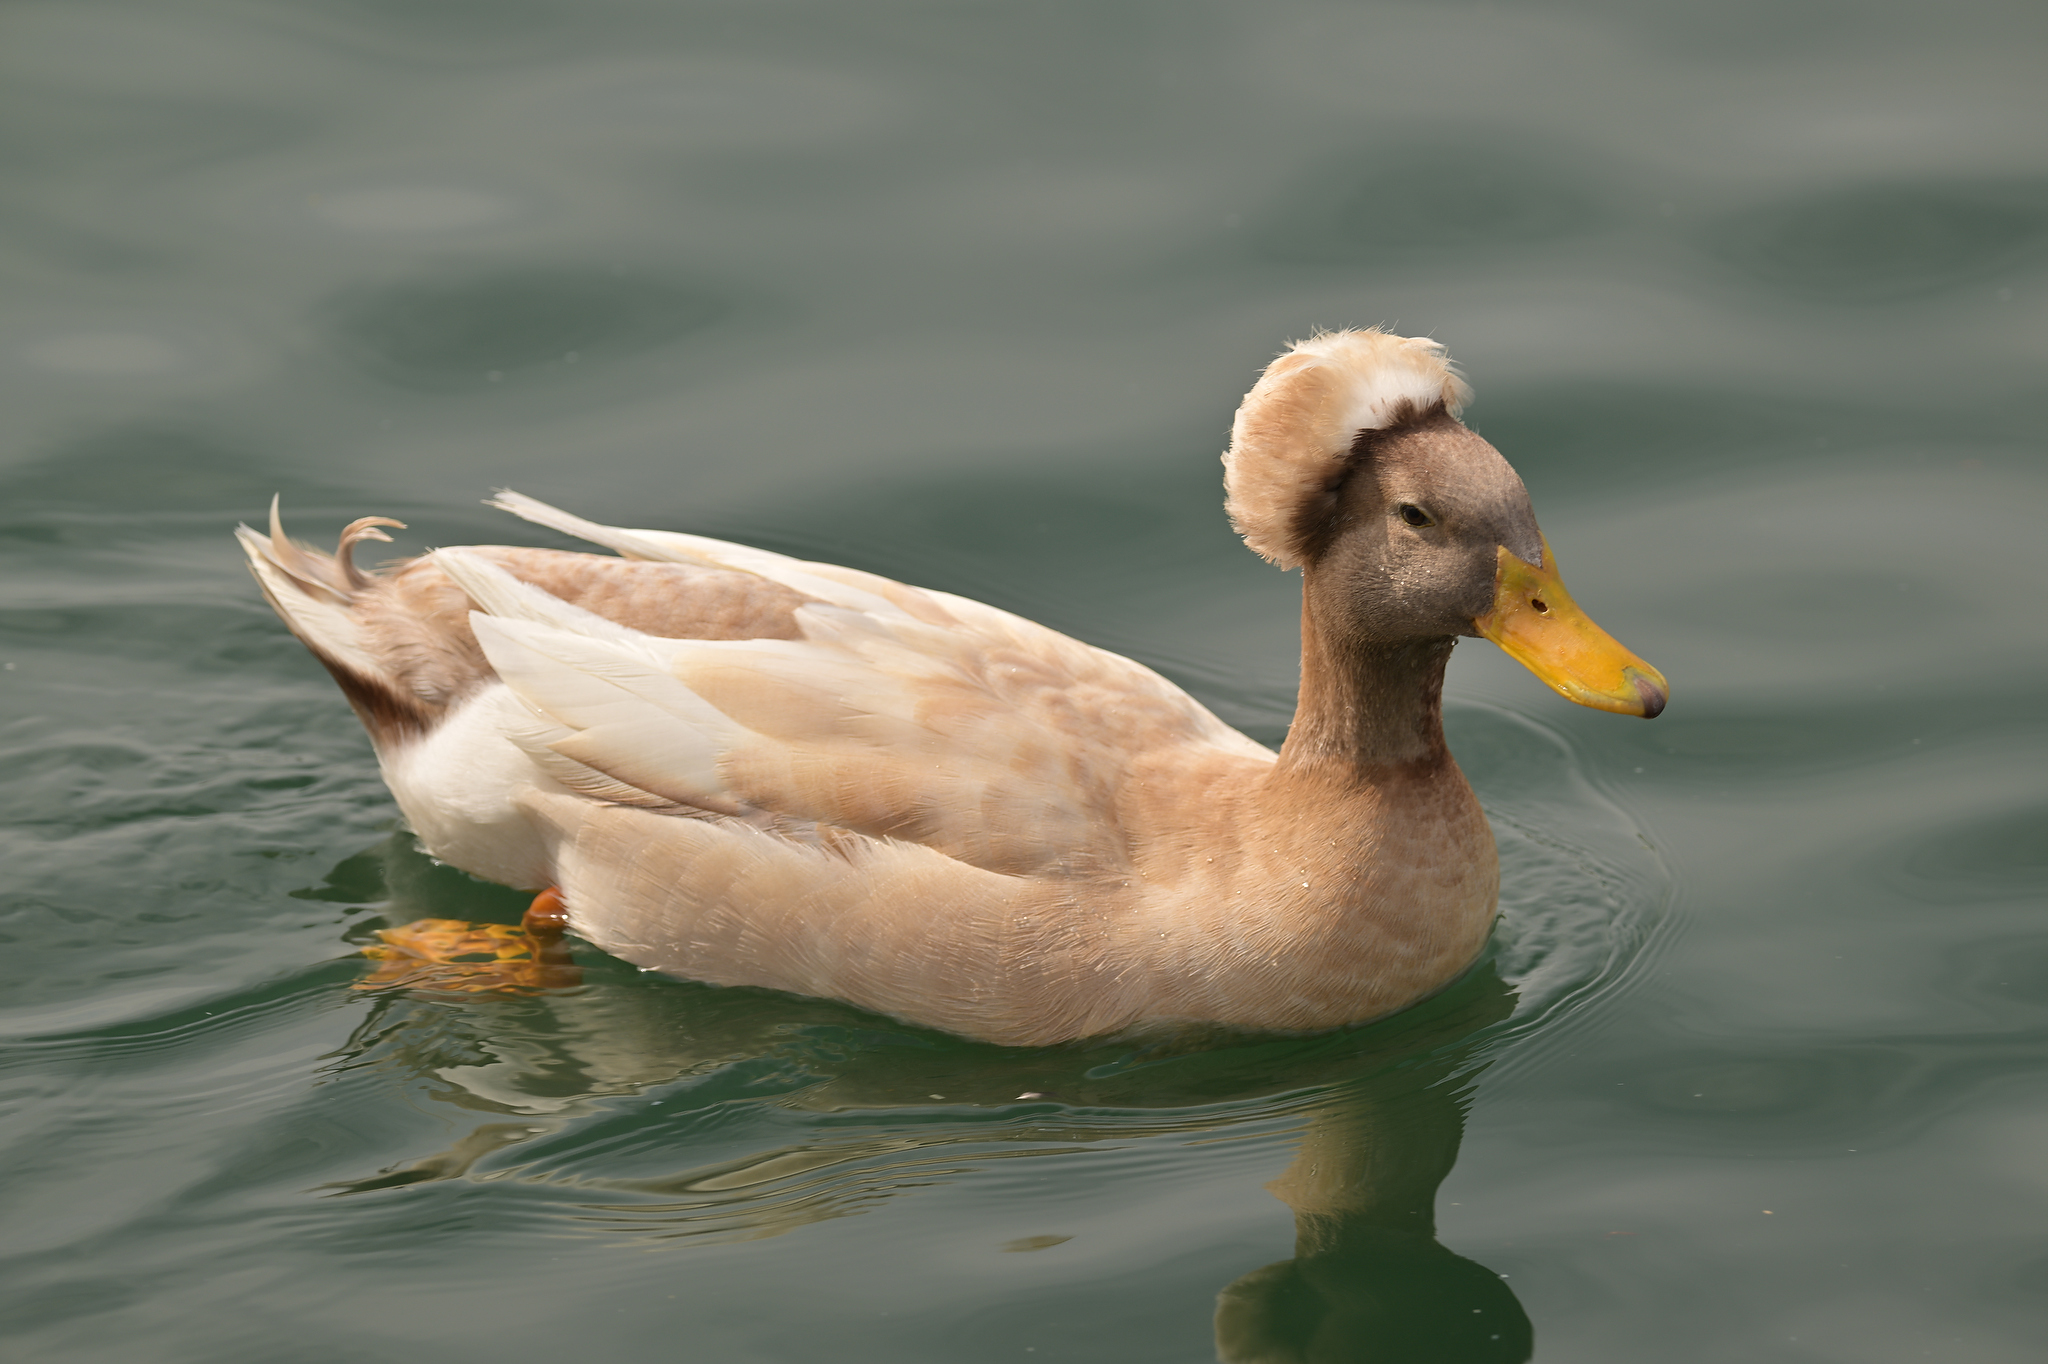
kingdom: Animalia
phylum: Chordata
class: Aves
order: Anseriformes
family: Anatidae
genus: Anas
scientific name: Anas platyrhynchos
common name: Mallard
